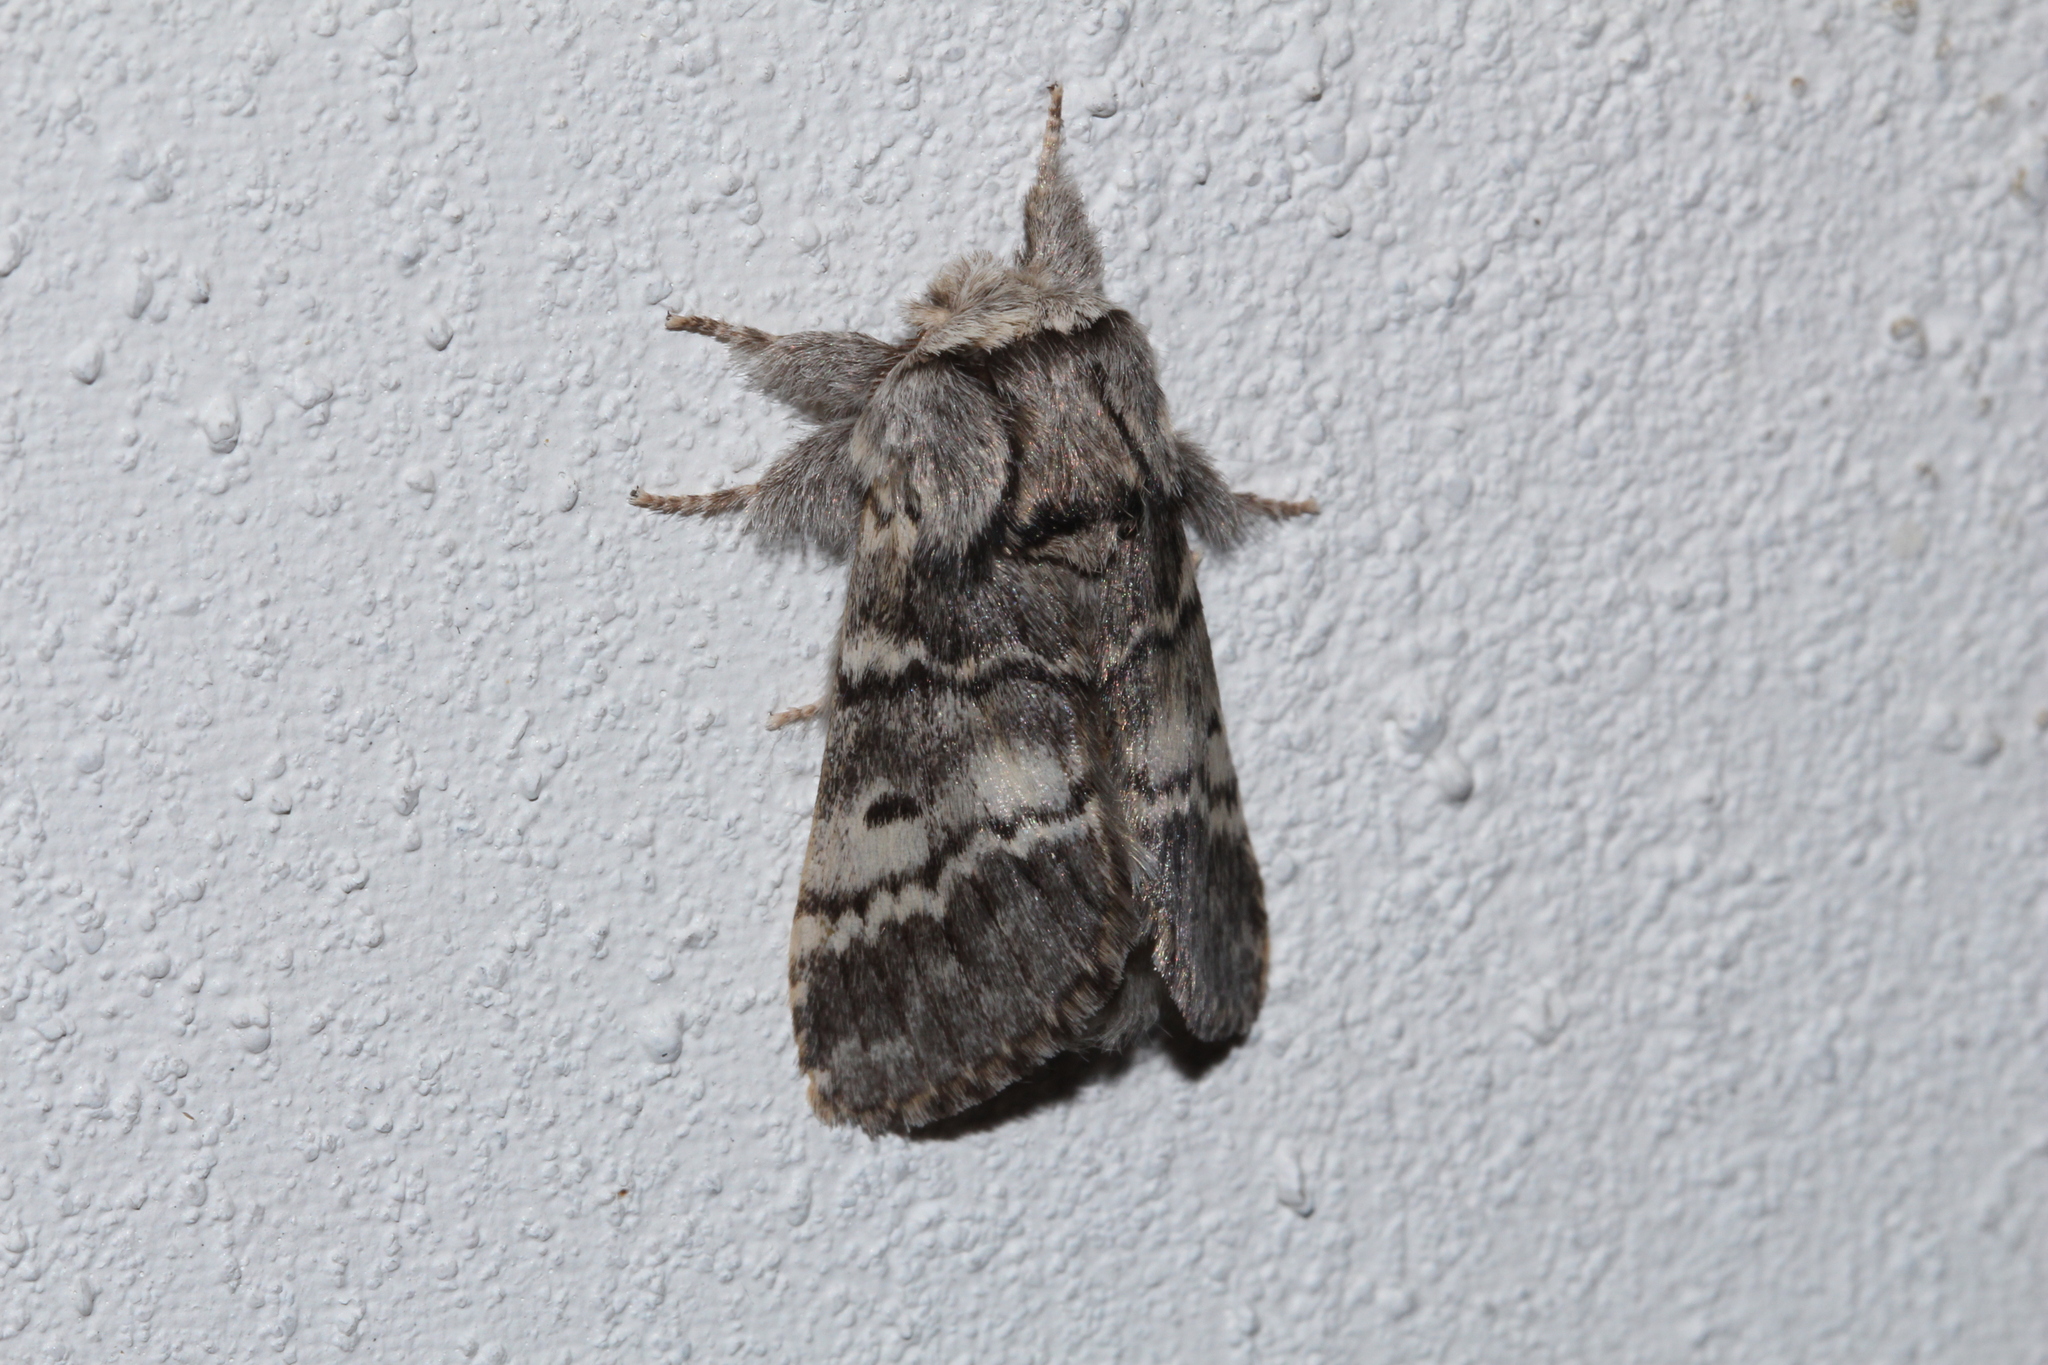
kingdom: Animalia
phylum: Arthropoda
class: Insecta
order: Lepidoptera
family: Notodontidae
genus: Drymonia
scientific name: Drymonia ruficornis
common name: Lunar marbled brown
